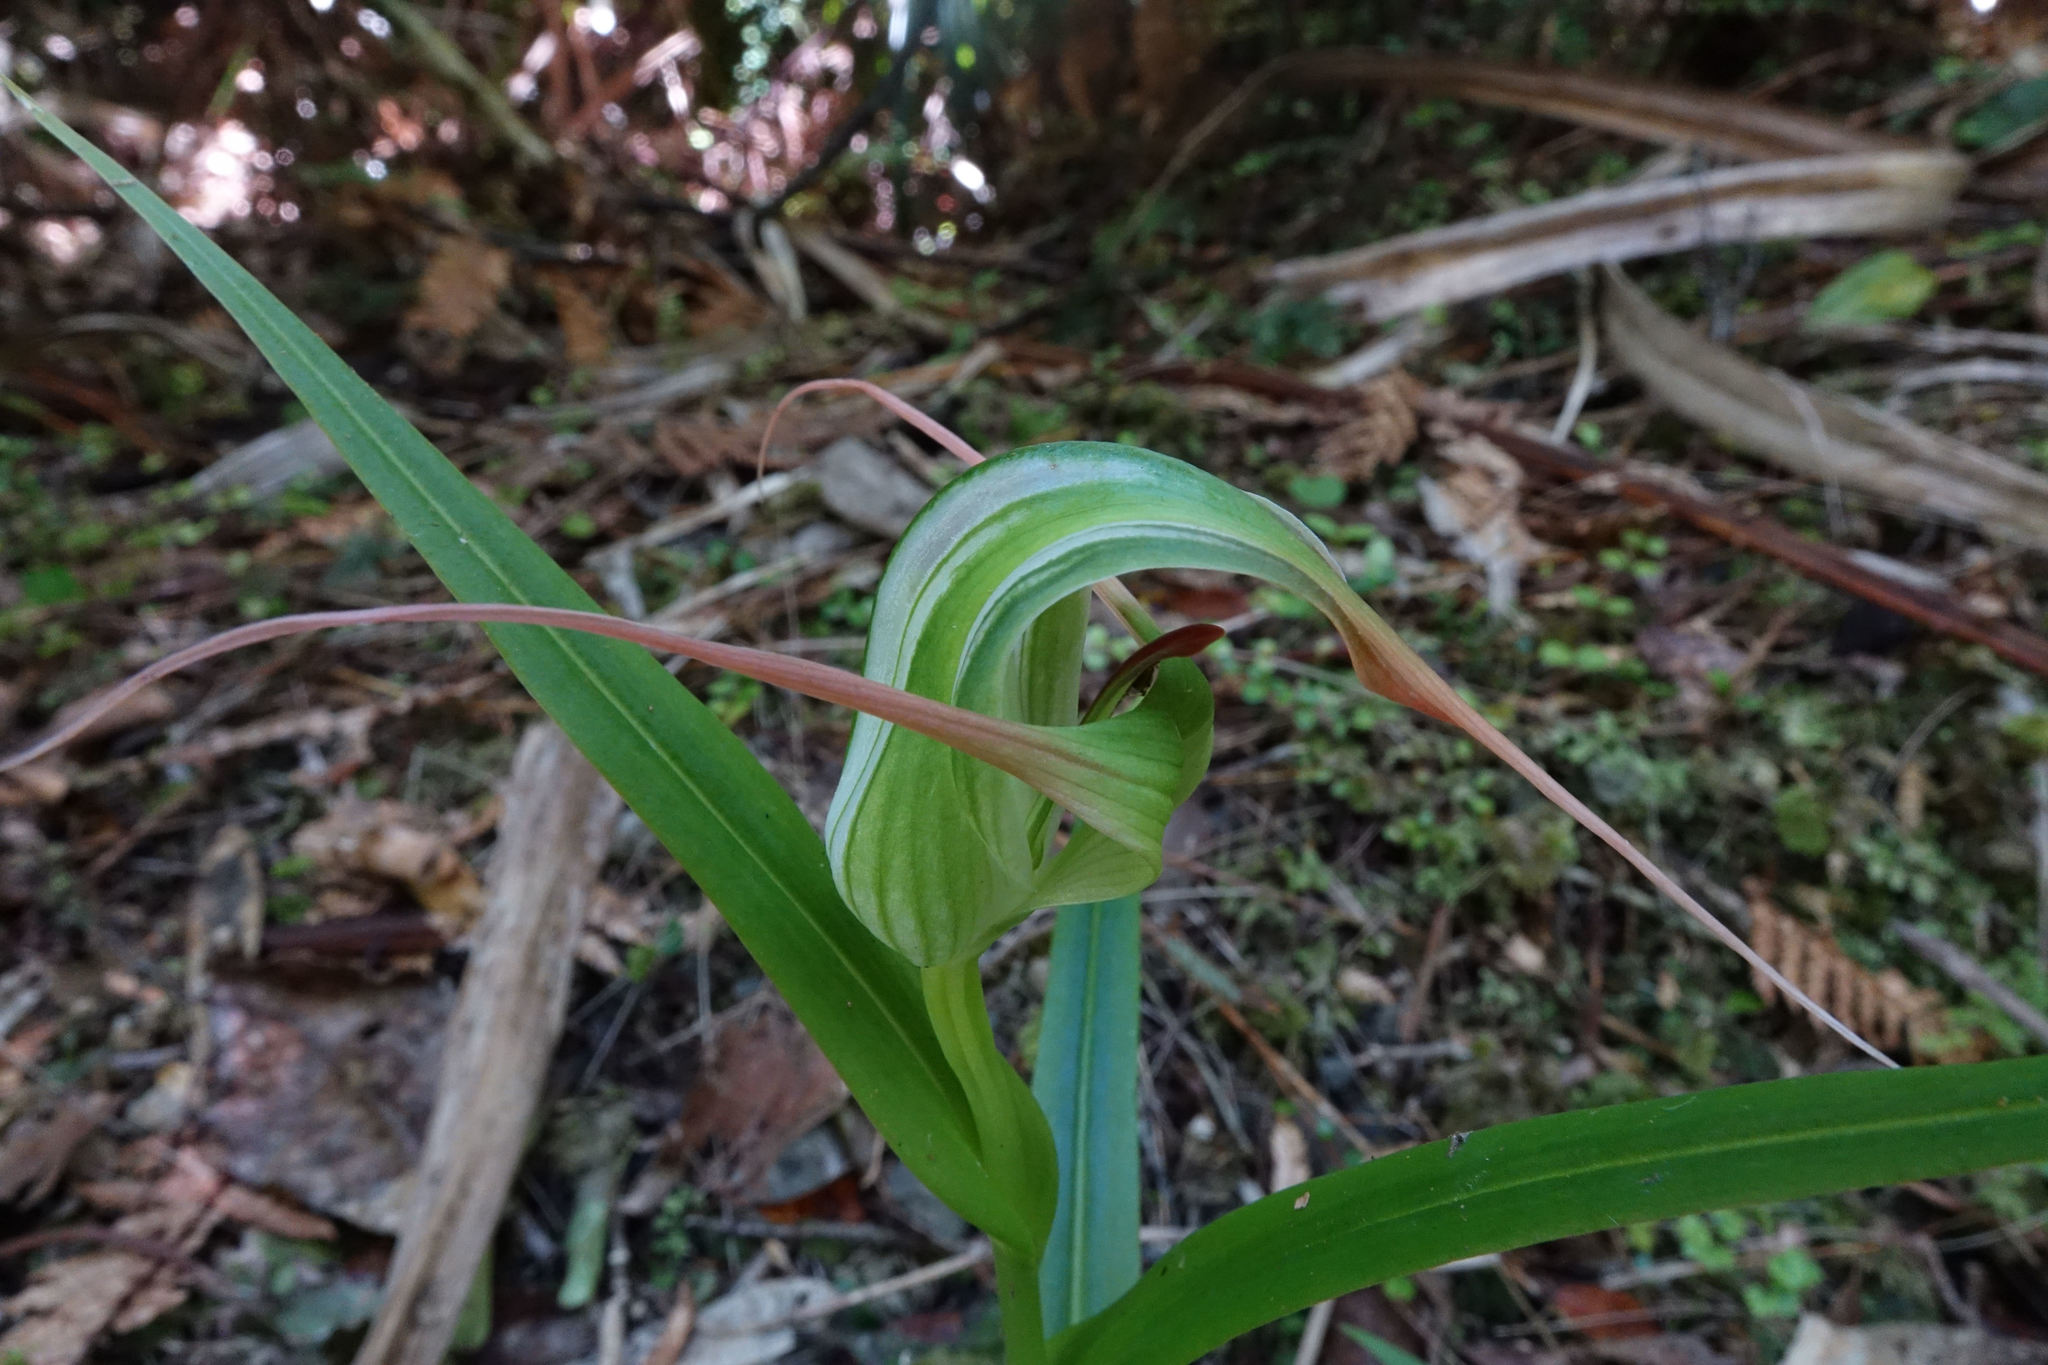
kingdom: Plantae
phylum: Tracheophyta
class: Liliopsida
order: Asparagales
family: Orchidaceae
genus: Pterostylis
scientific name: Pterostylis banksii
